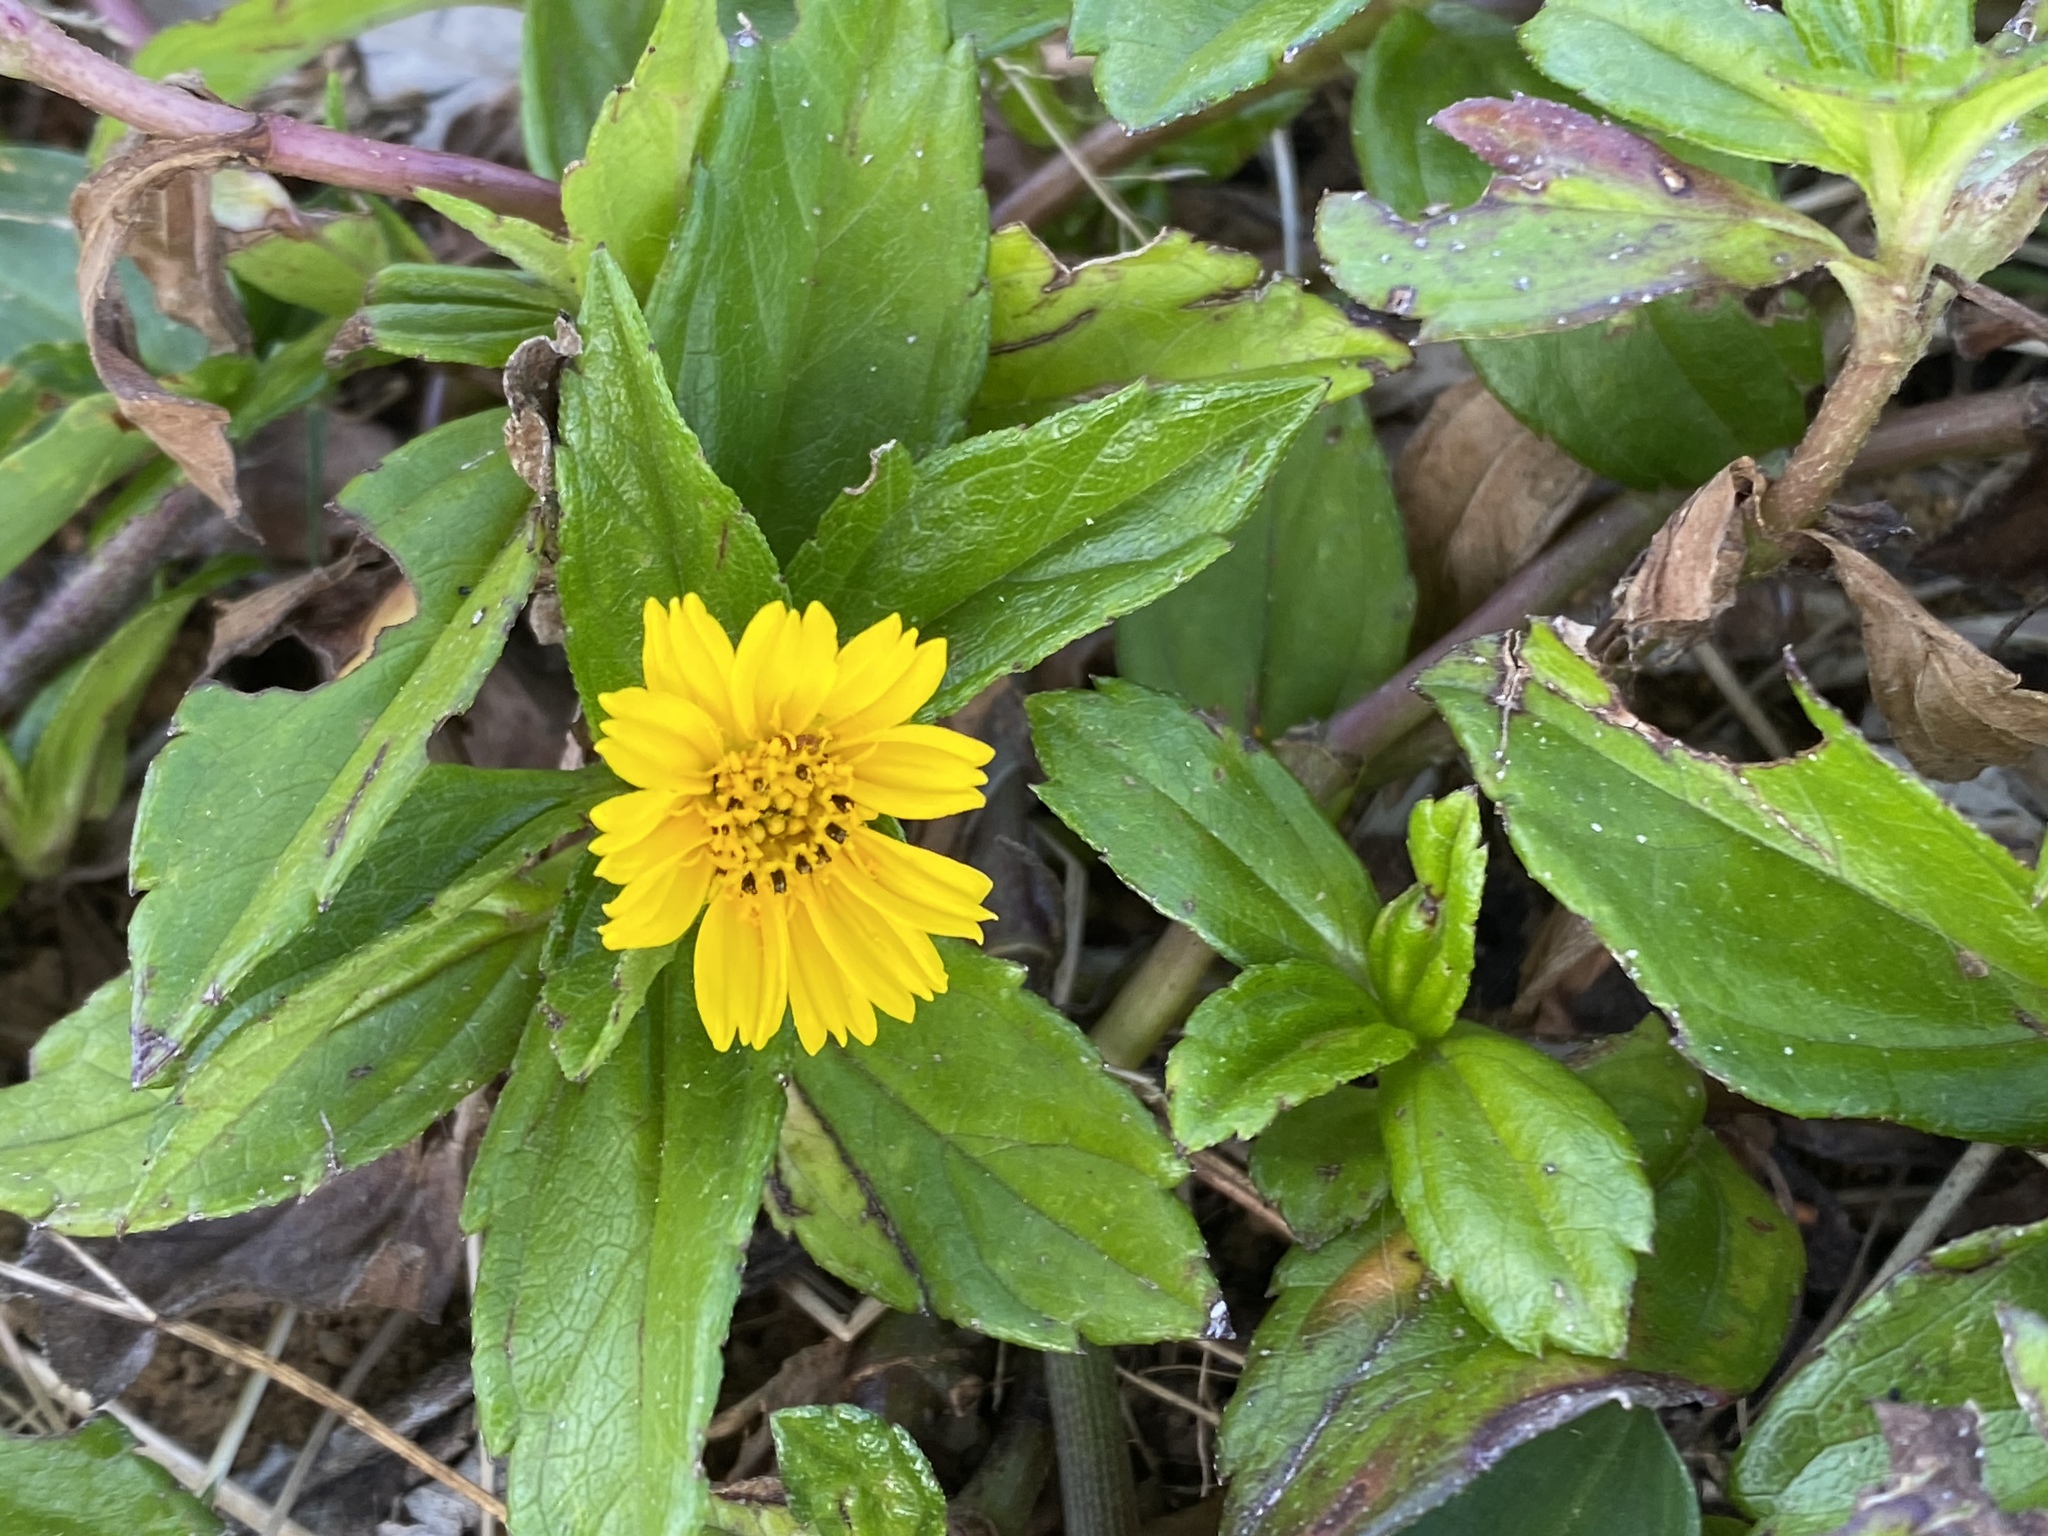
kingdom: Plantae
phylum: Tracheophyta
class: Magnoliopsida
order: Asterales
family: Asteraceae
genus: Sphagneticola
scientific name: Sphagneticola trilobata
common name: Bay biscayne creeping-oxeye
